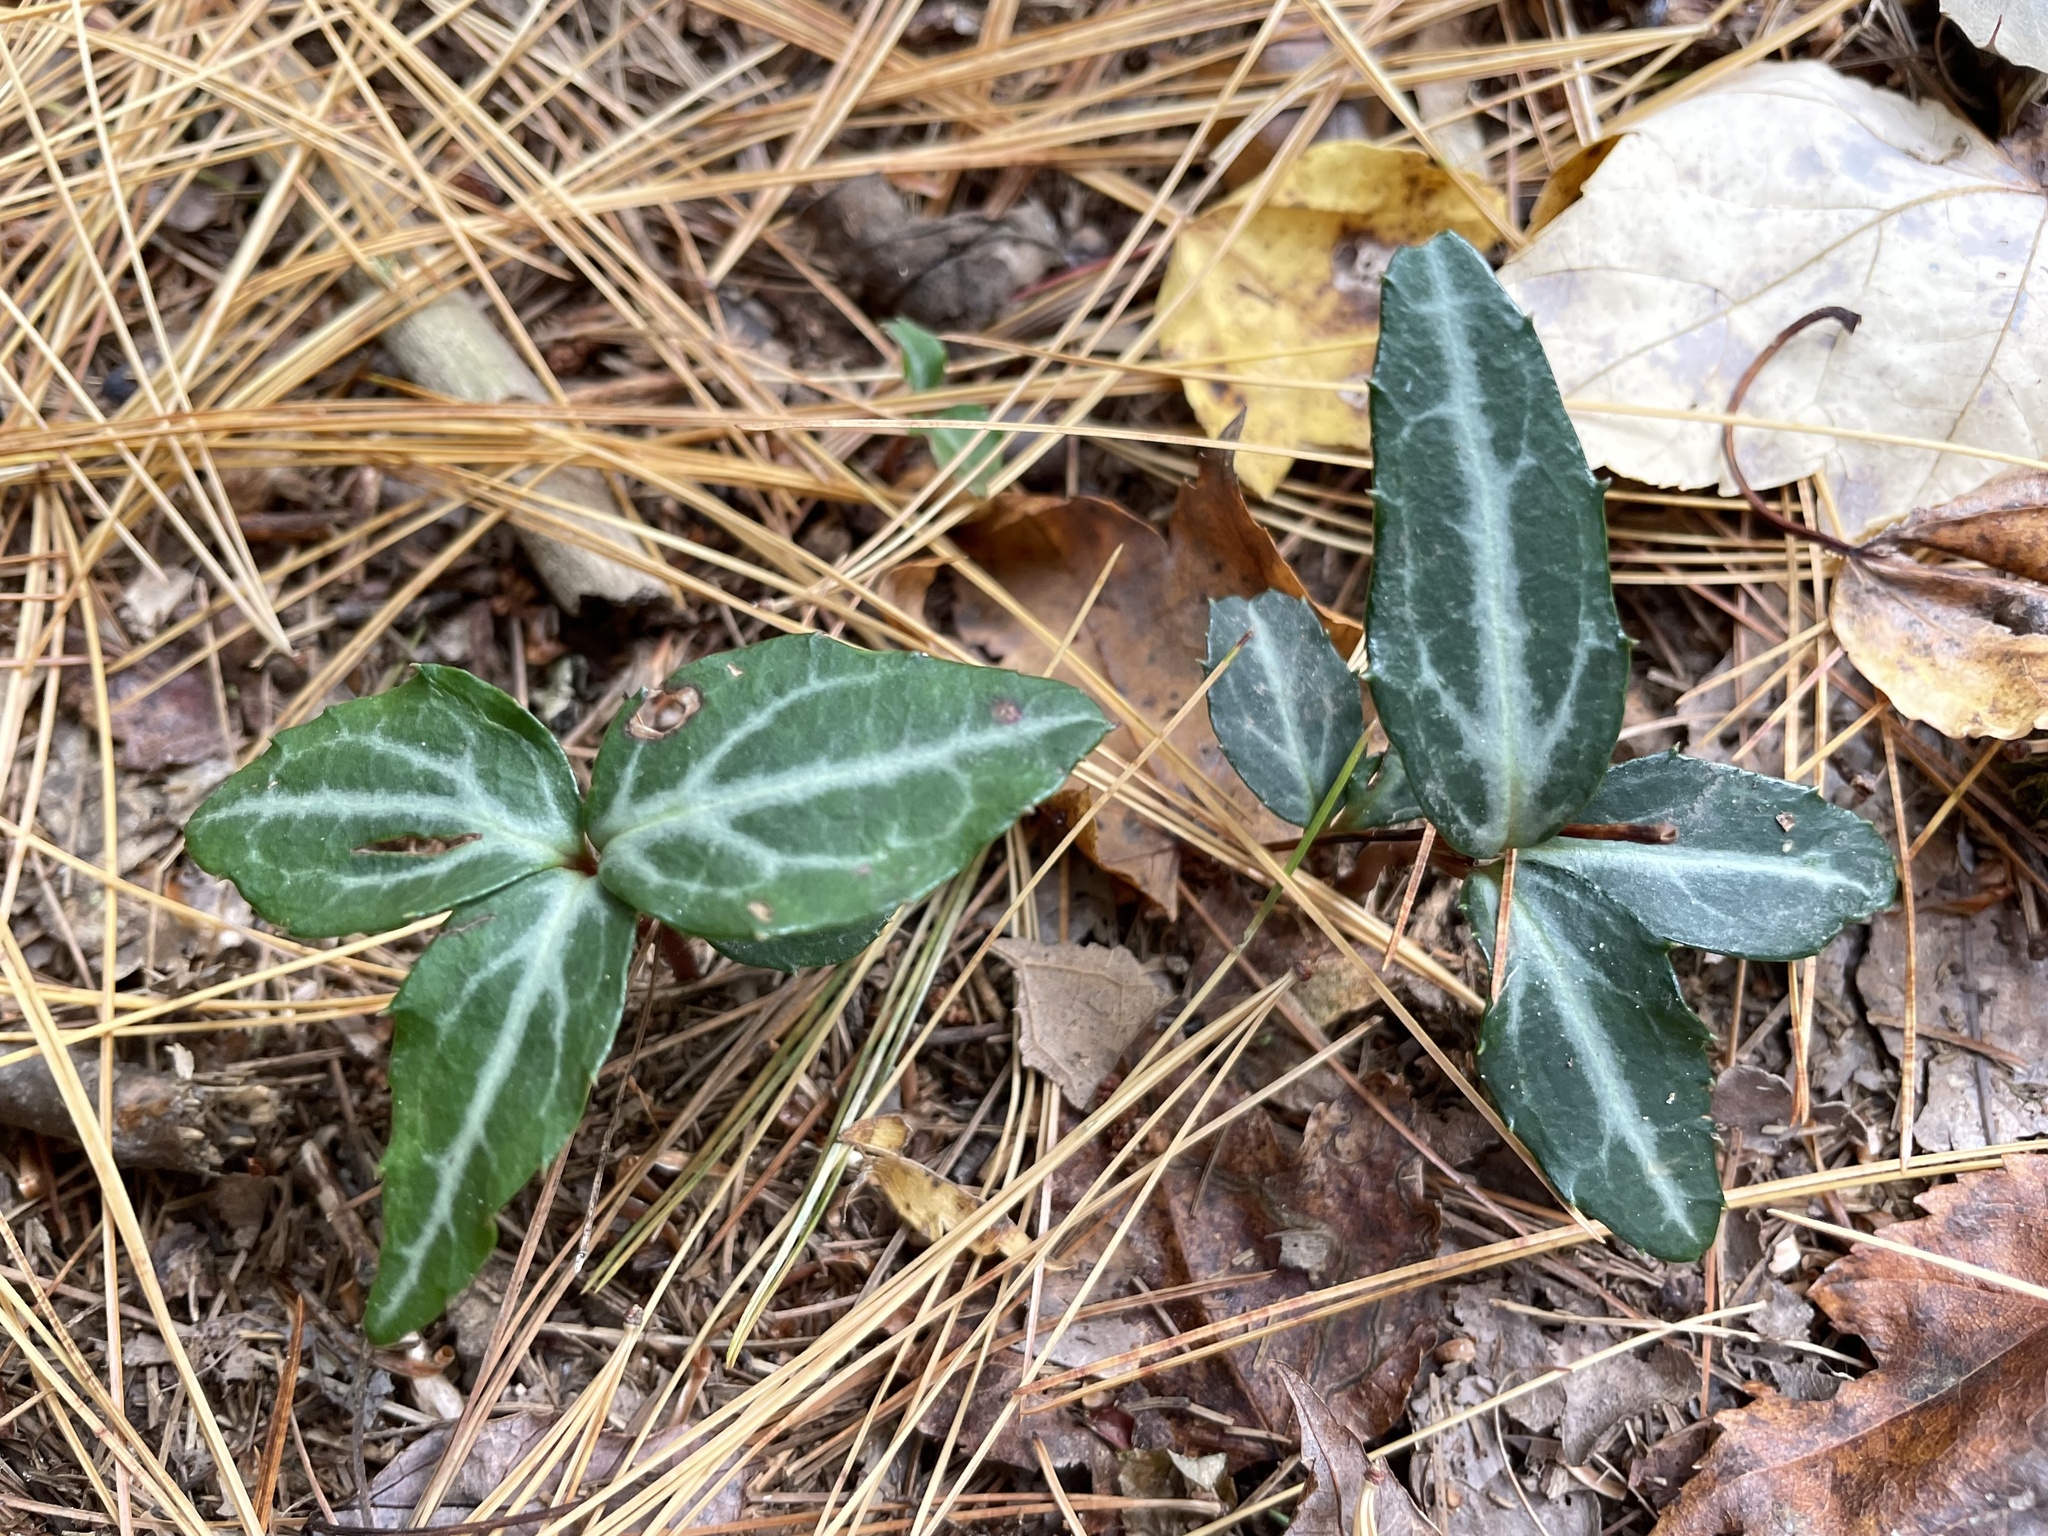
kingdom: Plantae
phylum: Tracheophyta
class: Magnoliopsida
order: Ericales
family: Ericaceae
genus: Chimaphila
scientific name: Chimaphila maculata
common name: Spotted pipsissewa
